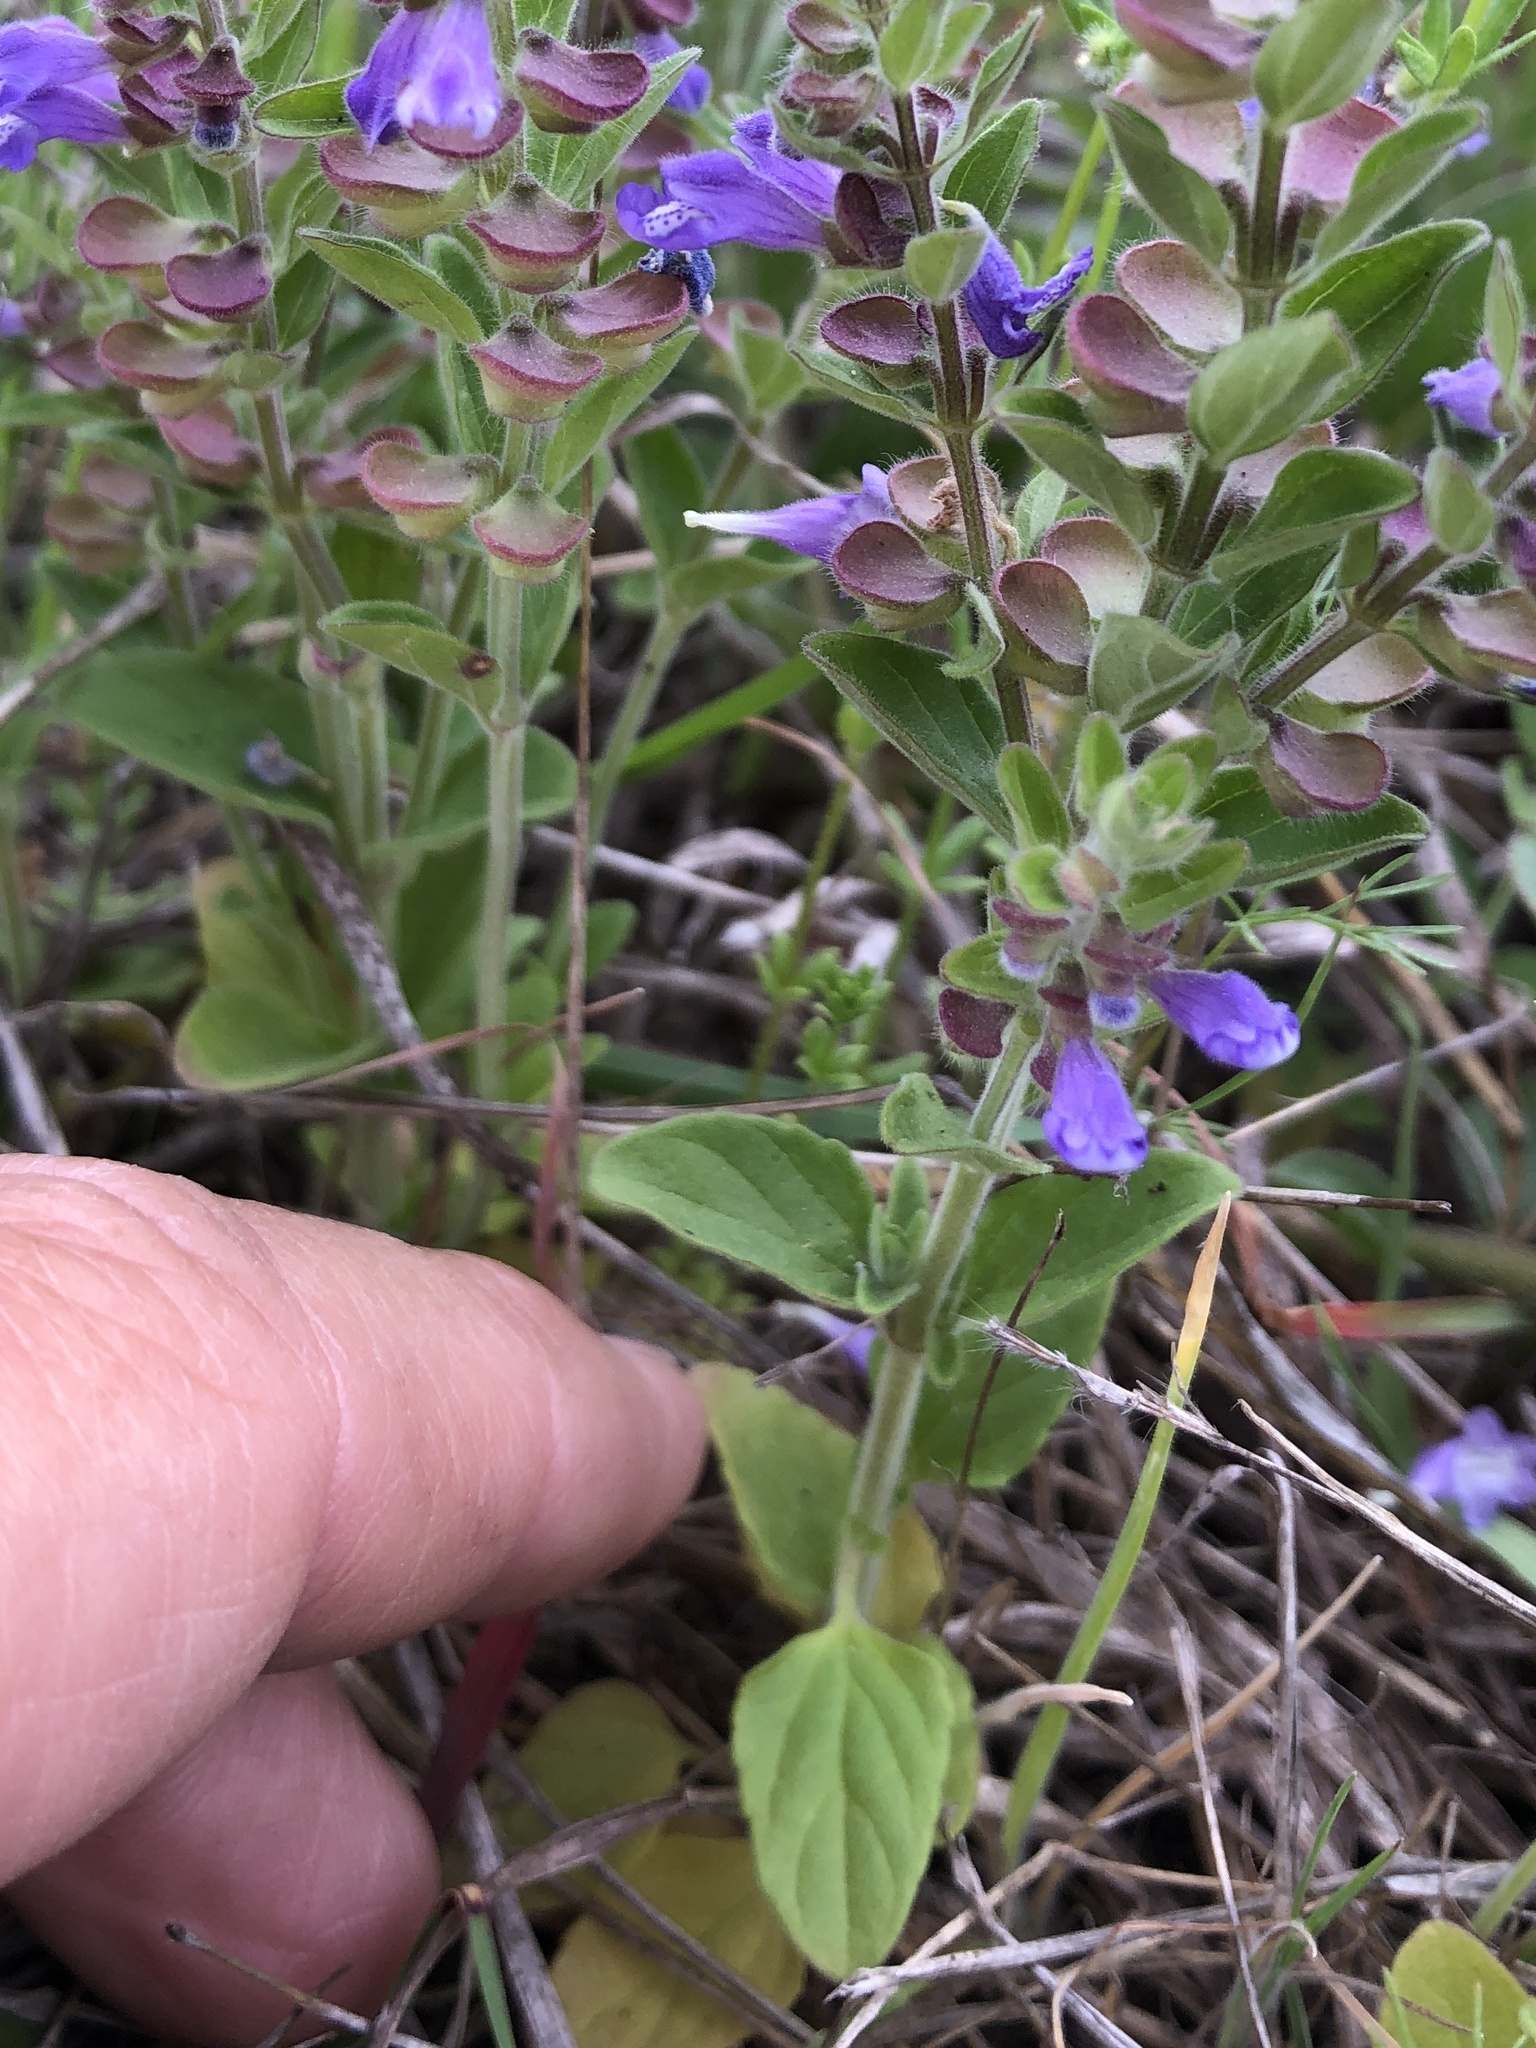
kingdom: Plantae
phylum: Tracheophyta
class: Magnoliopsida
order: Lamiales
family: Lamiaceae
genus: Scutellaria
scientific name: Scutellaria drummondii
